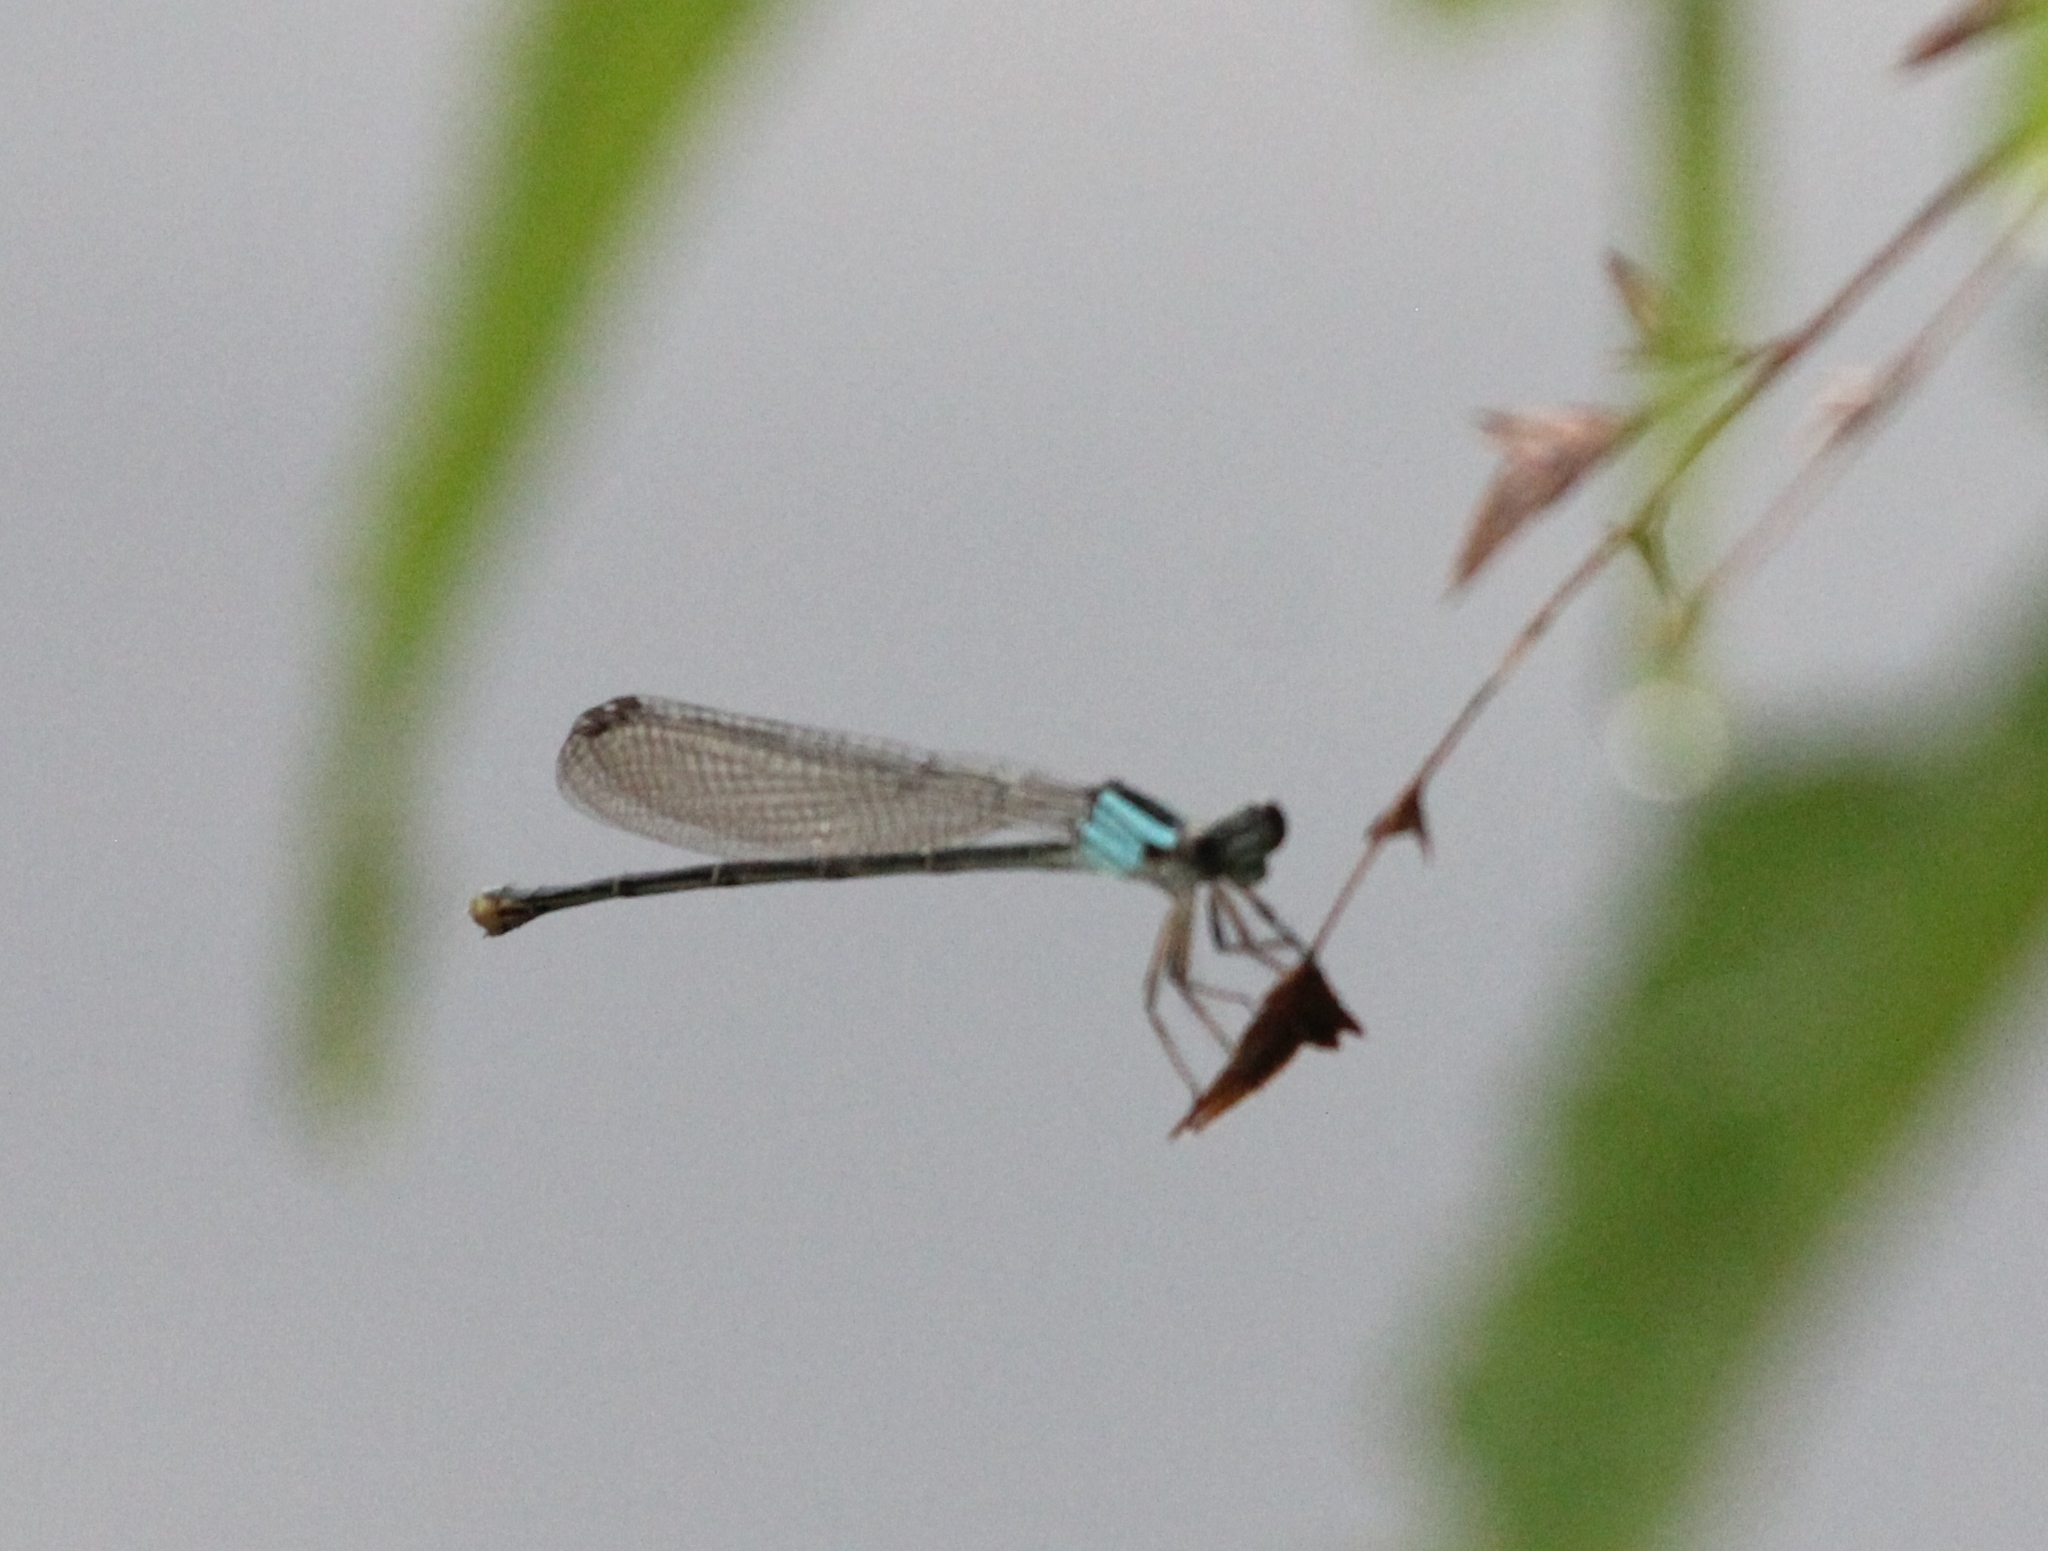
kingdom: Animalia
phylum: Arthropoda
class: Insecta
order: Odonata
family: Coenagrionidae
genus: Argia
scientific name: Argia moesta
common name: Powdered dancer
